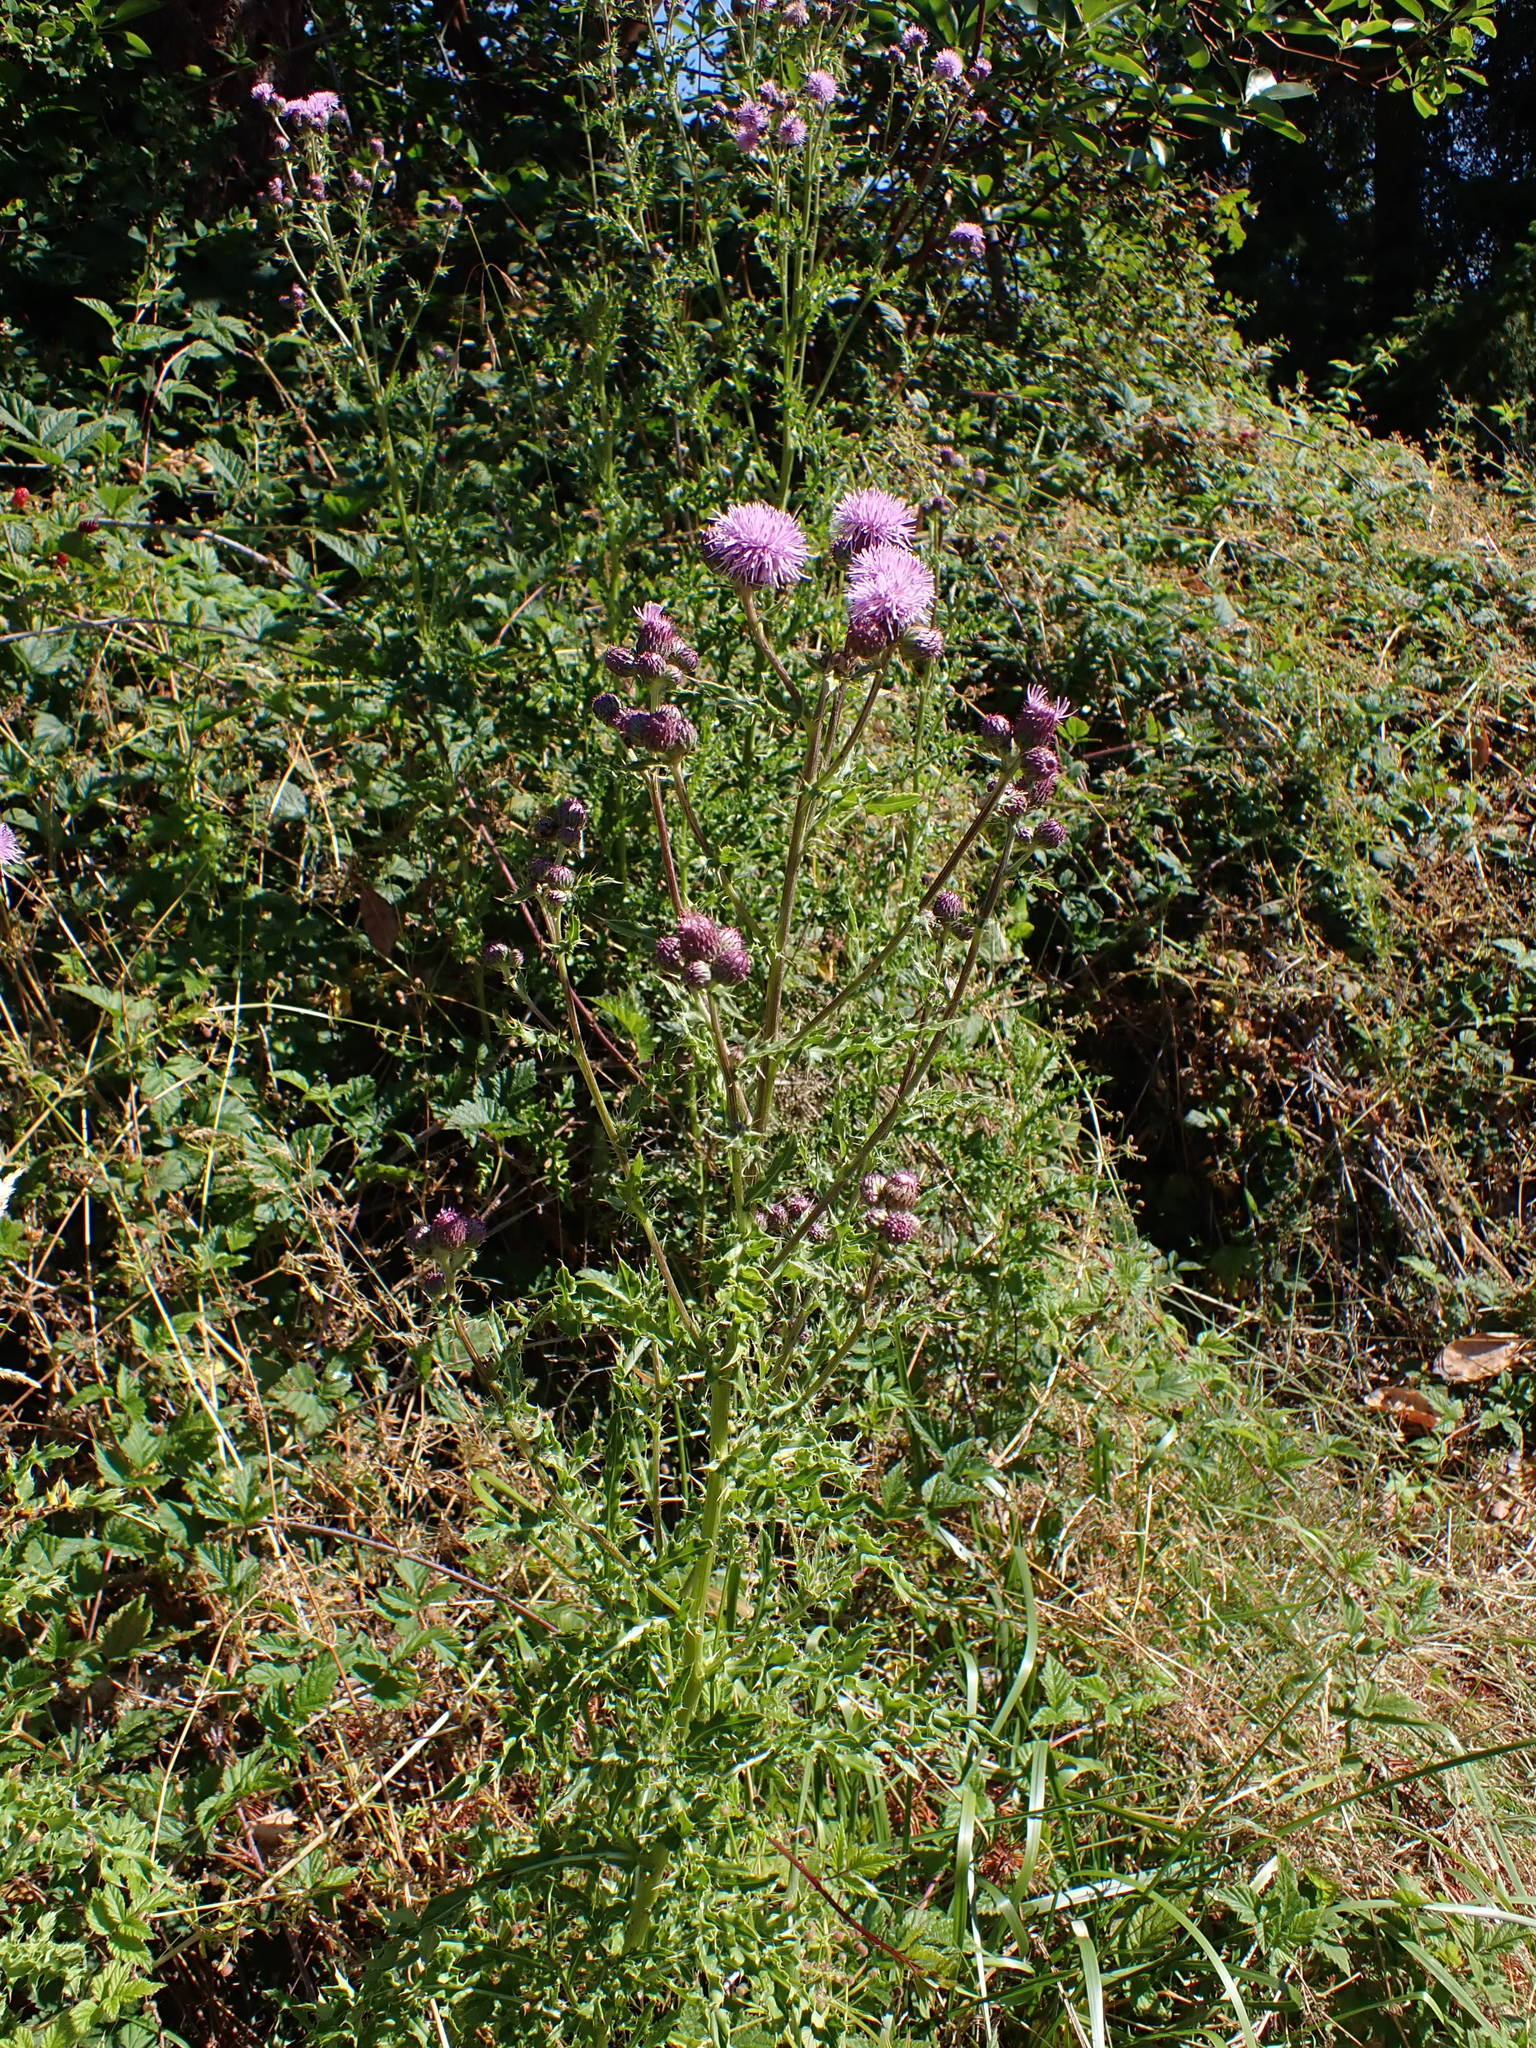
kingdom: Plantae
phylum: Tracheophyta
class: Magnoliopsida
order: Asterales
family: Asteraceae
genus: Cirsium
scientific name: Cirsium arvense
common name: Creeping thistle
